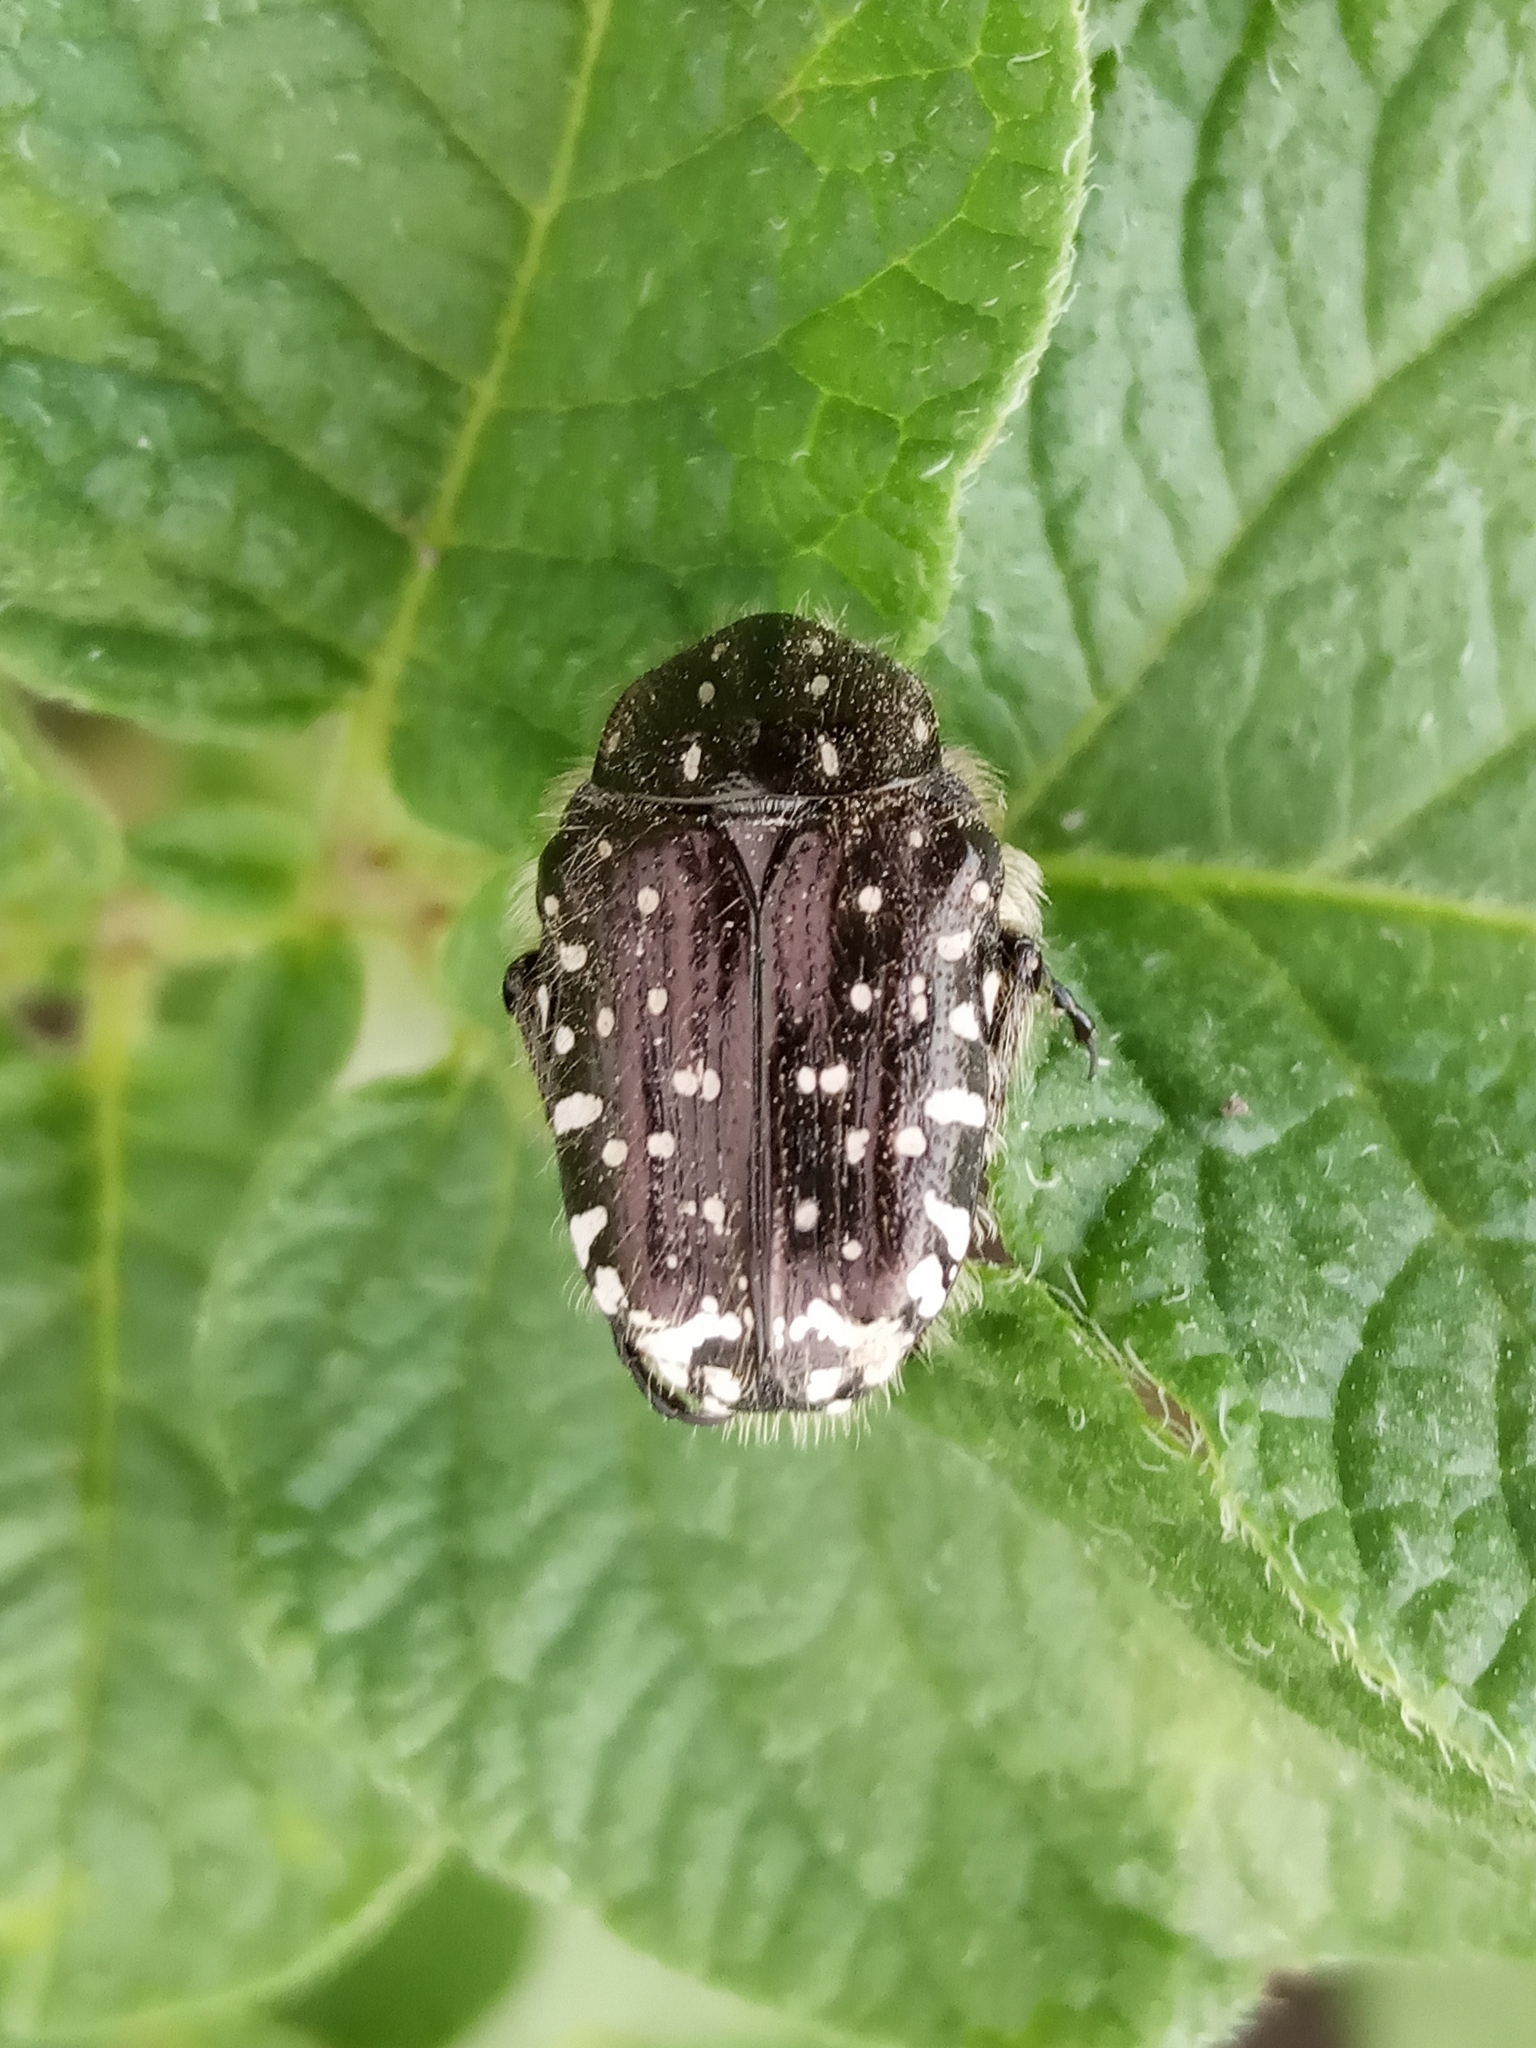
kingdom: Animalia
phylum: Arthropoda
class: Insecta
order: Coleoptera
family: Scarabaeidae
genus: Oxythyrea
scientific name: Oxythyrea funesta
